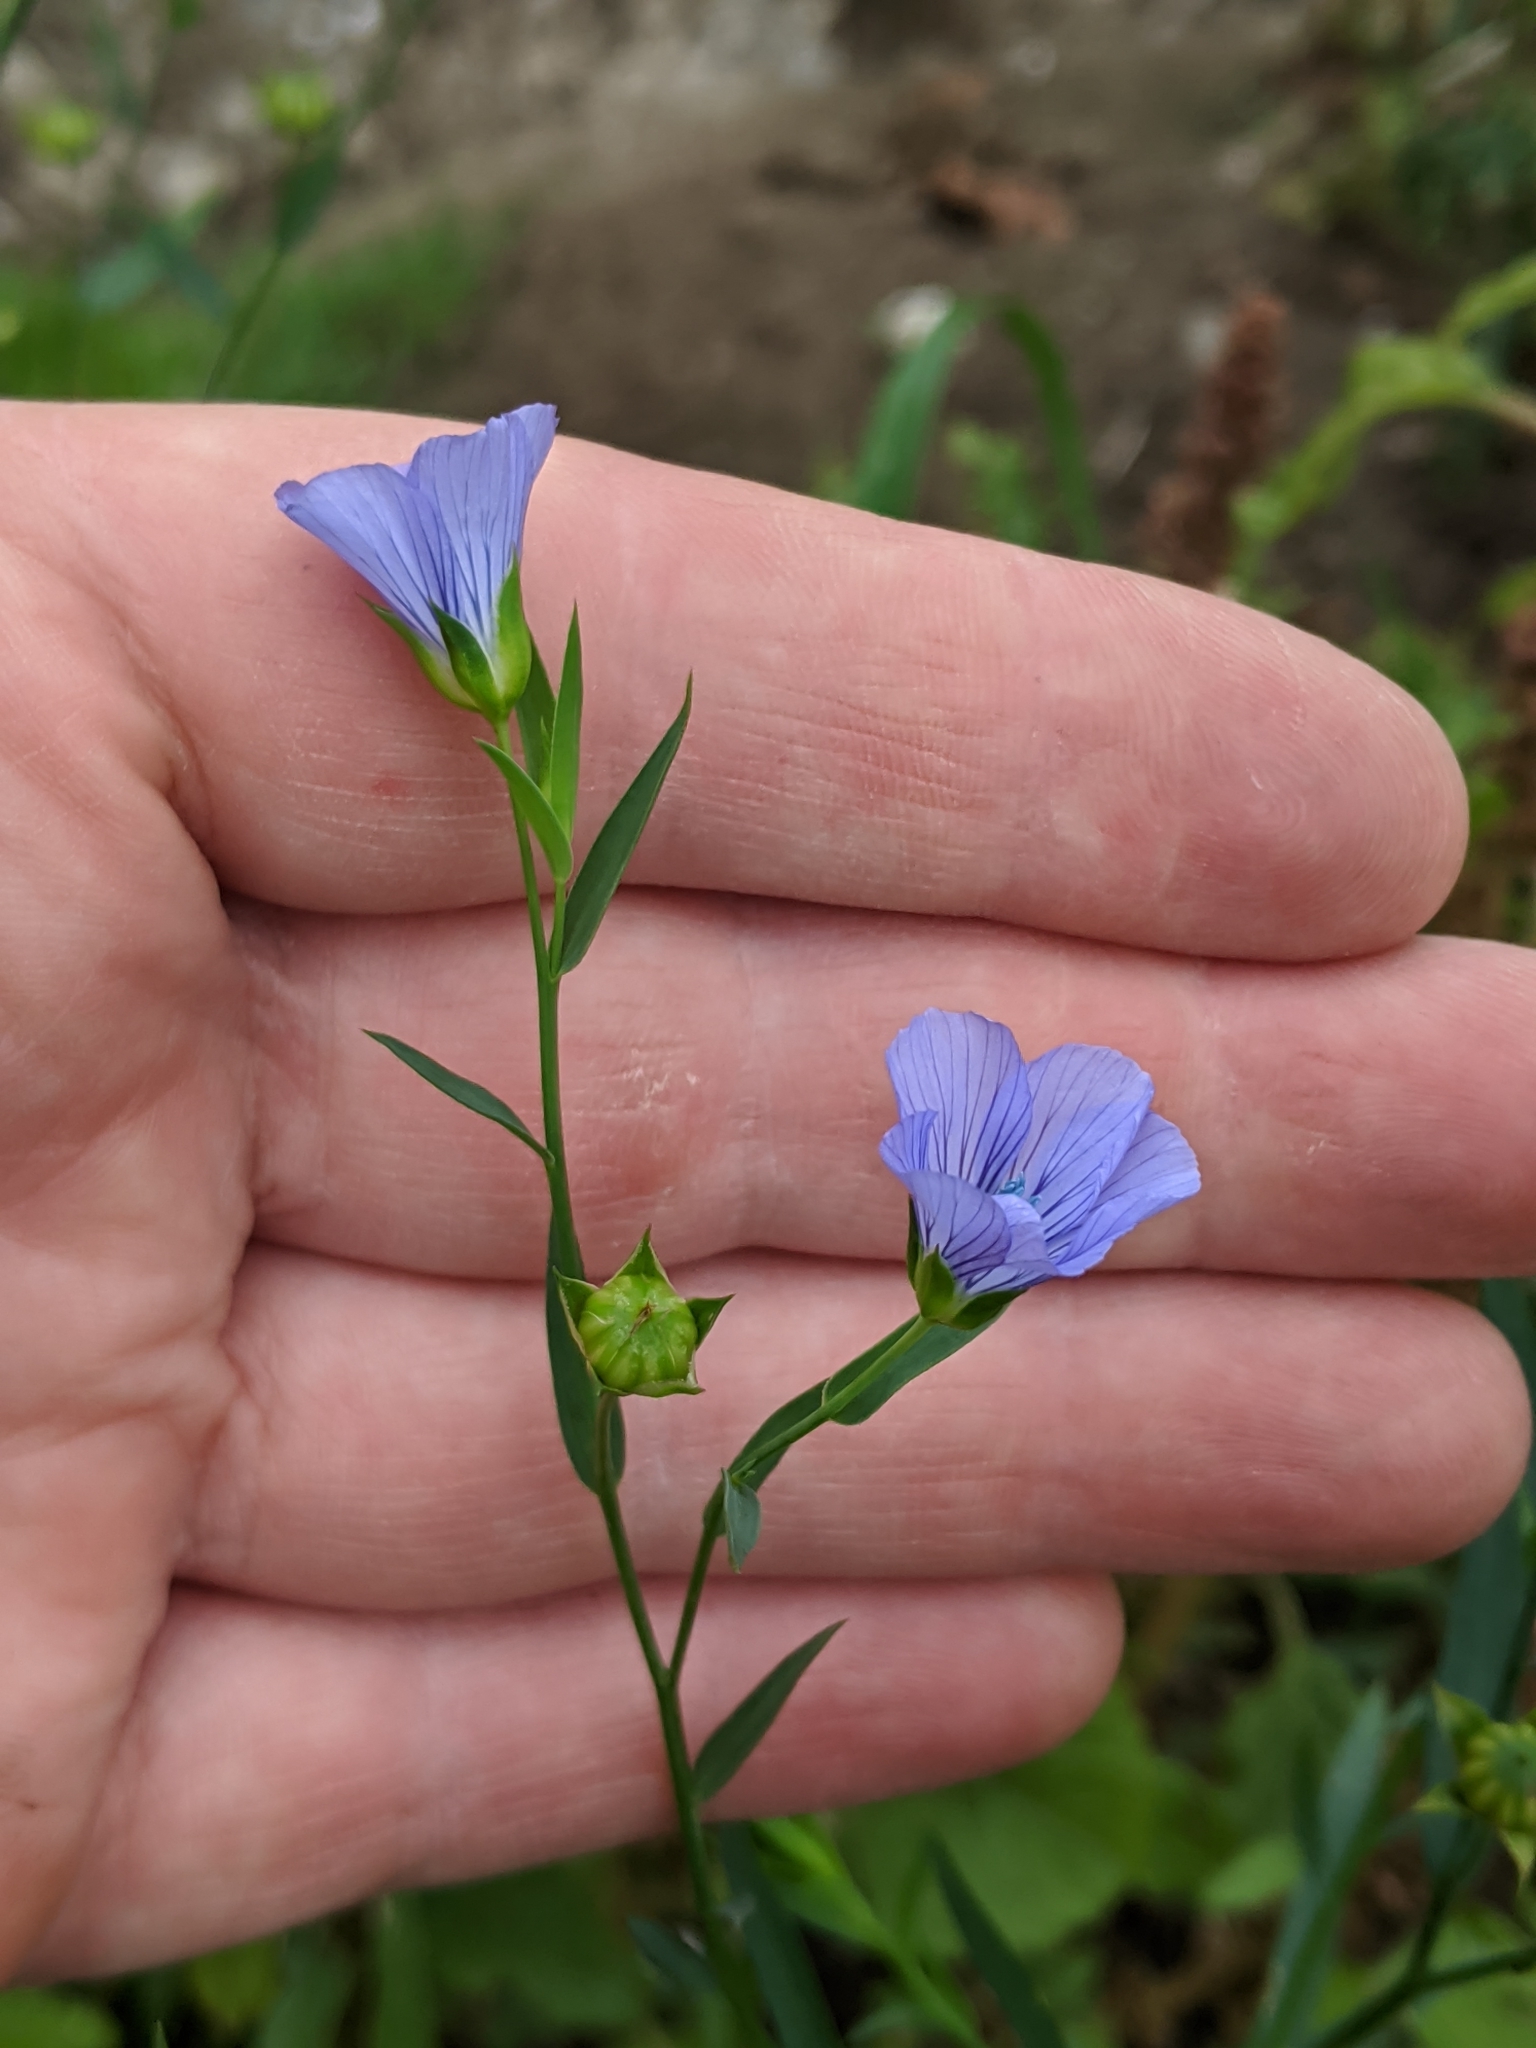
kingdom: Plantae
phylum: Tracheophyta
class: Magnoliopsida
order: Malpighiales
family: Linaceae
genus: Linum
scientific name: Linum usitatissimum
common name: Flax
